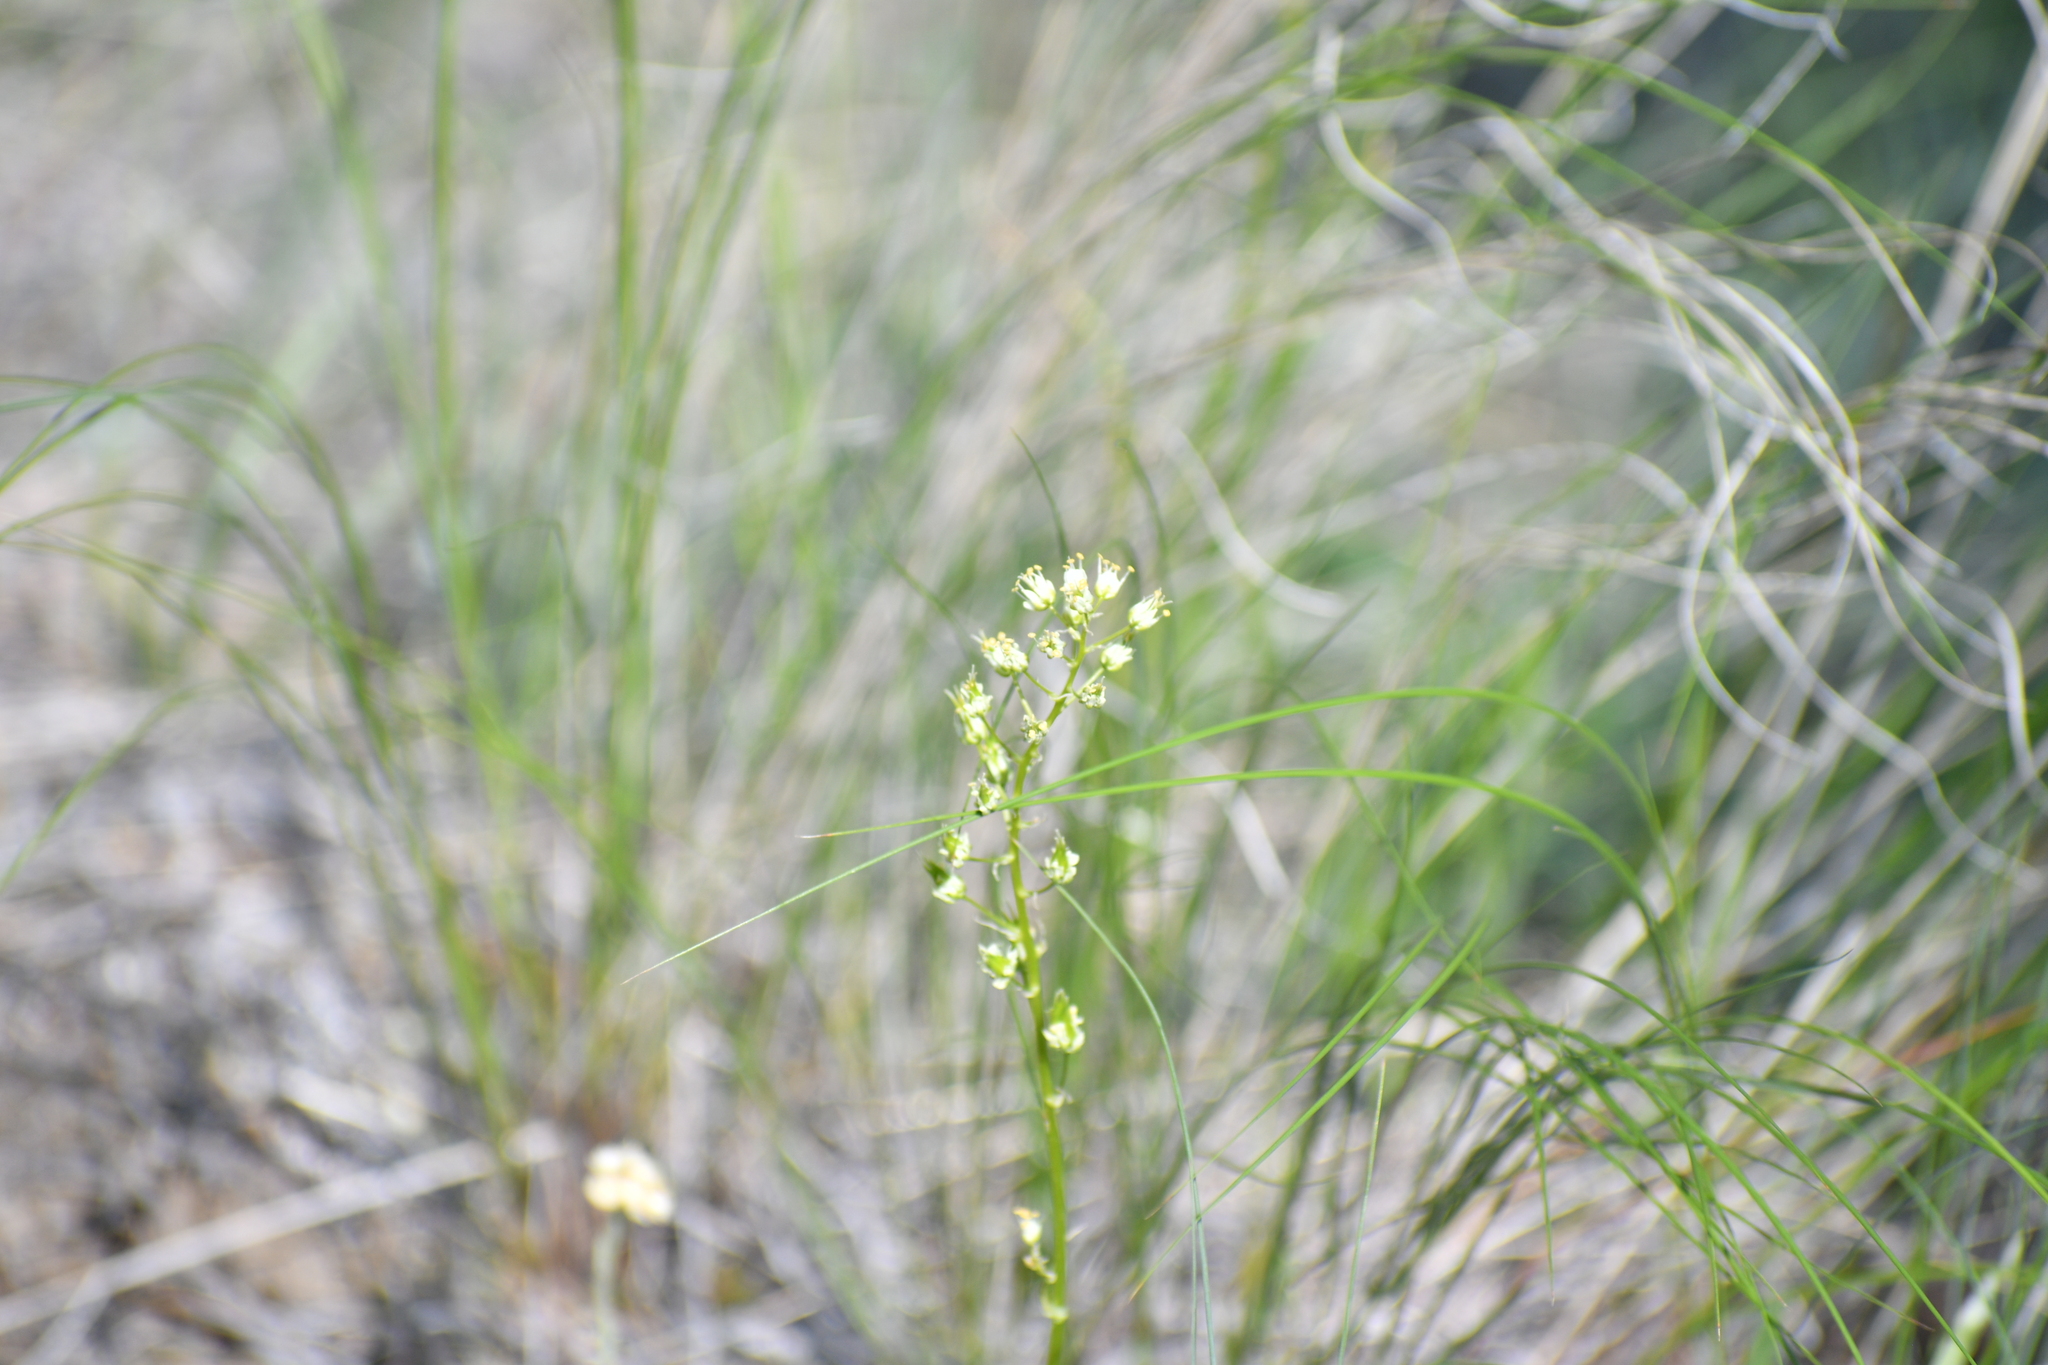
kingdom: Plantae
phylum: Tracheophyta
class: Liliopsida
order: Liliales
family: Melanthiaceae
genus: Toxicoscordion
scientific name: Toxicoscordion venenosum
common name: Meadow death camas
